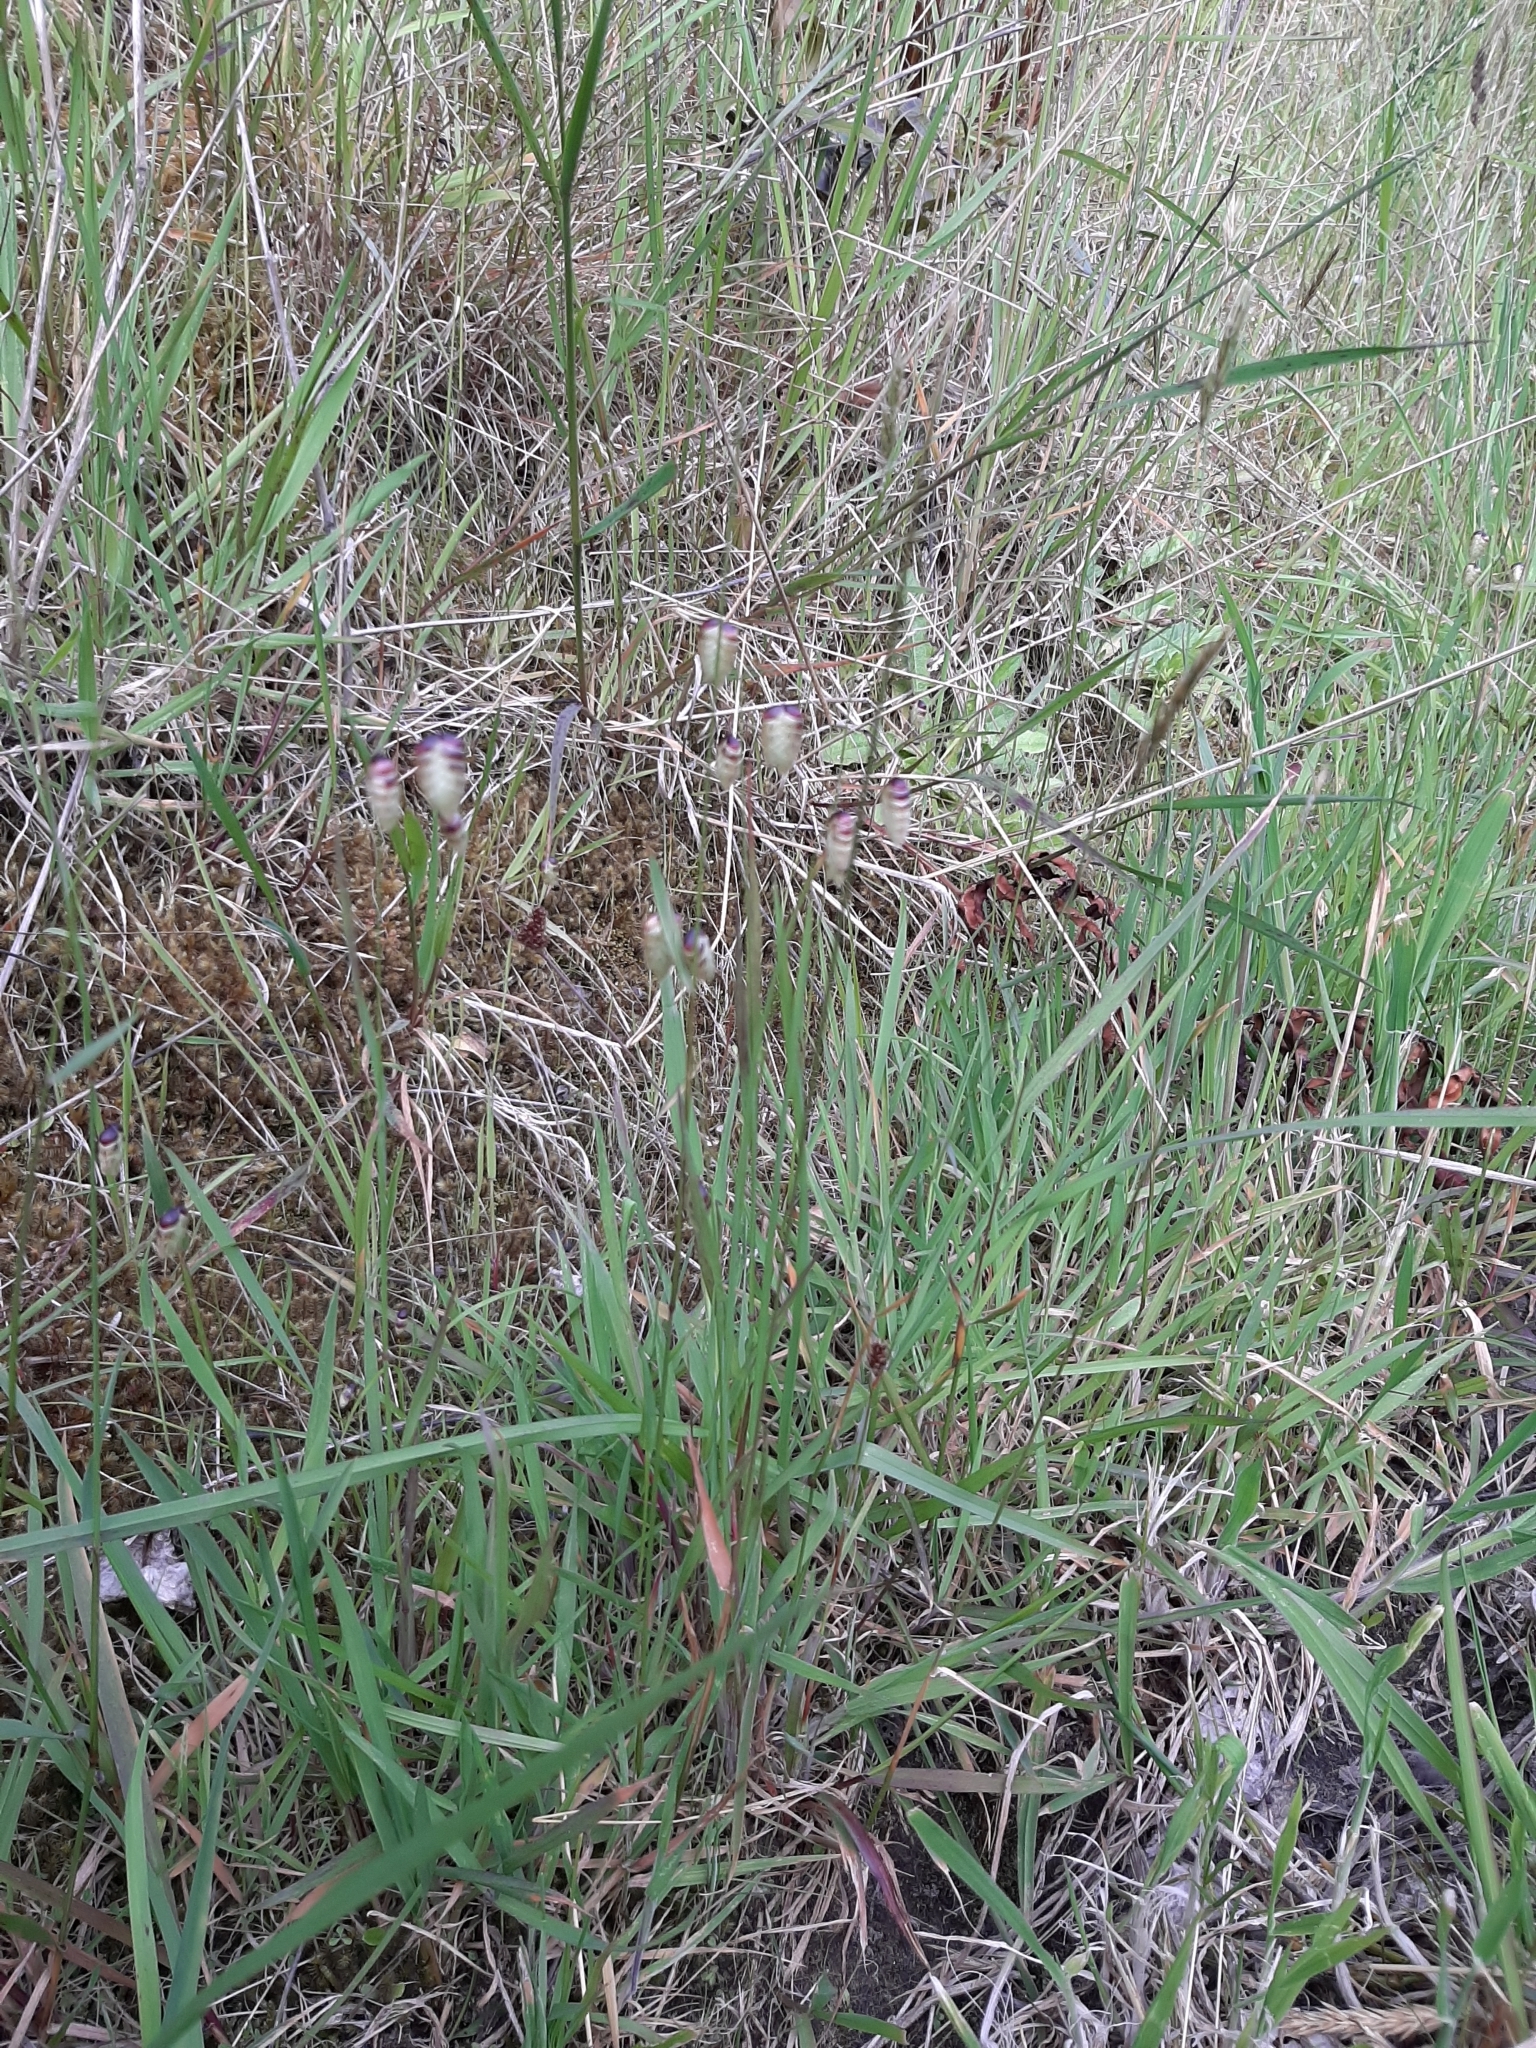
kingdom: Plantae
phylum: Tracheophyta
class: Liliopsida
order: Poales
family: Poaceae
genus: Briza
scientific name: Briza minor
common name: Lesser quaking-grass
